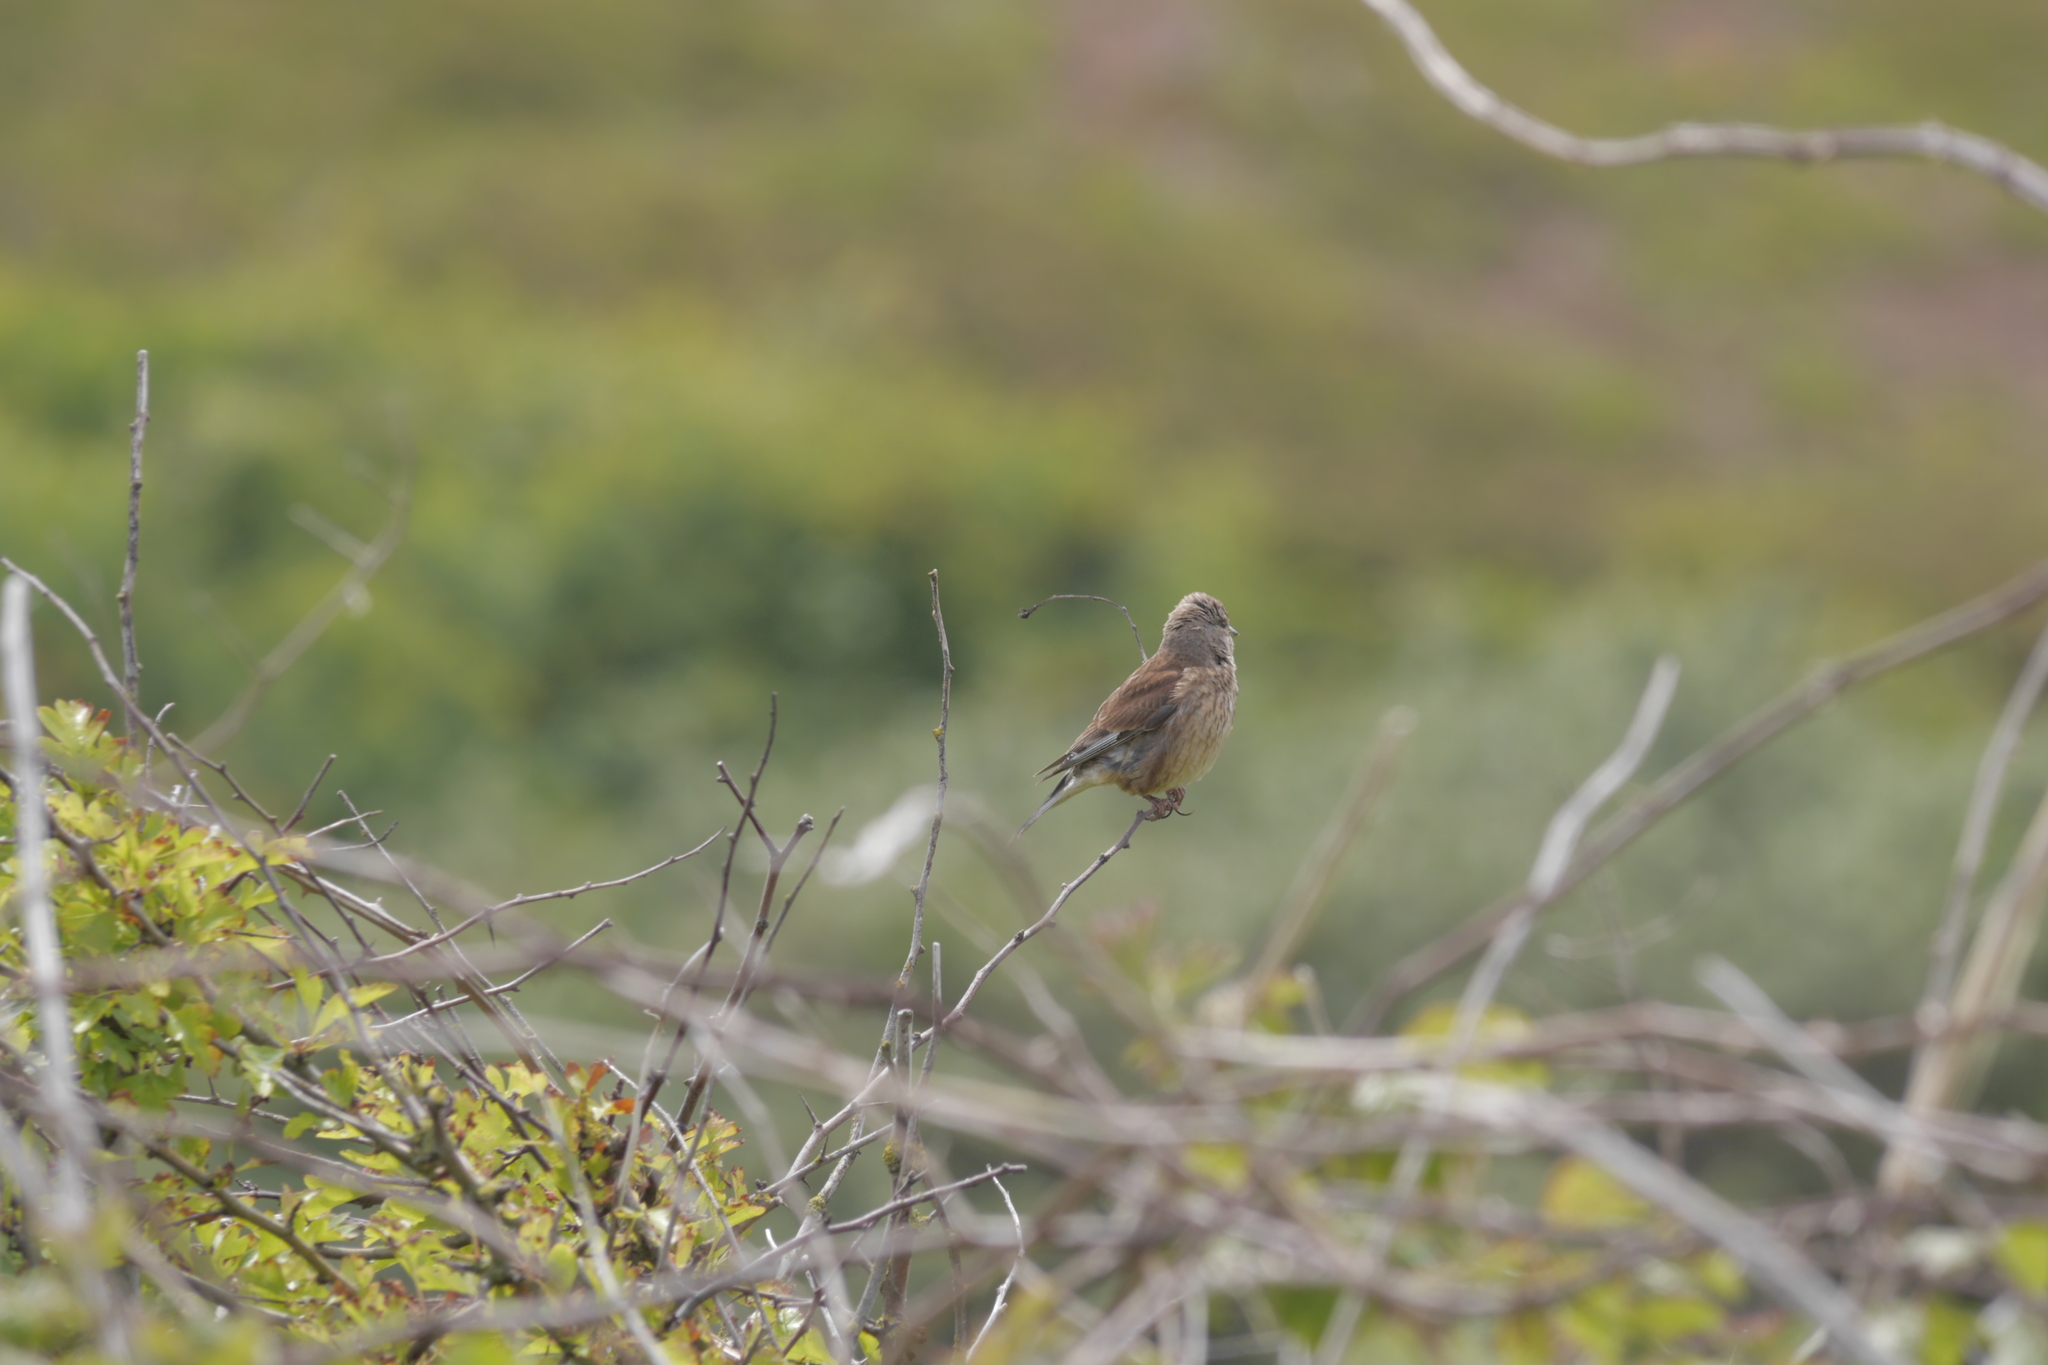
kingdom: Animalia
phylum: Chordata
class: Aves
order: Passeriformes
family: Fringillidae
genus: Linaria
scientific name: Linaria cannabina
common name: Common linnet
